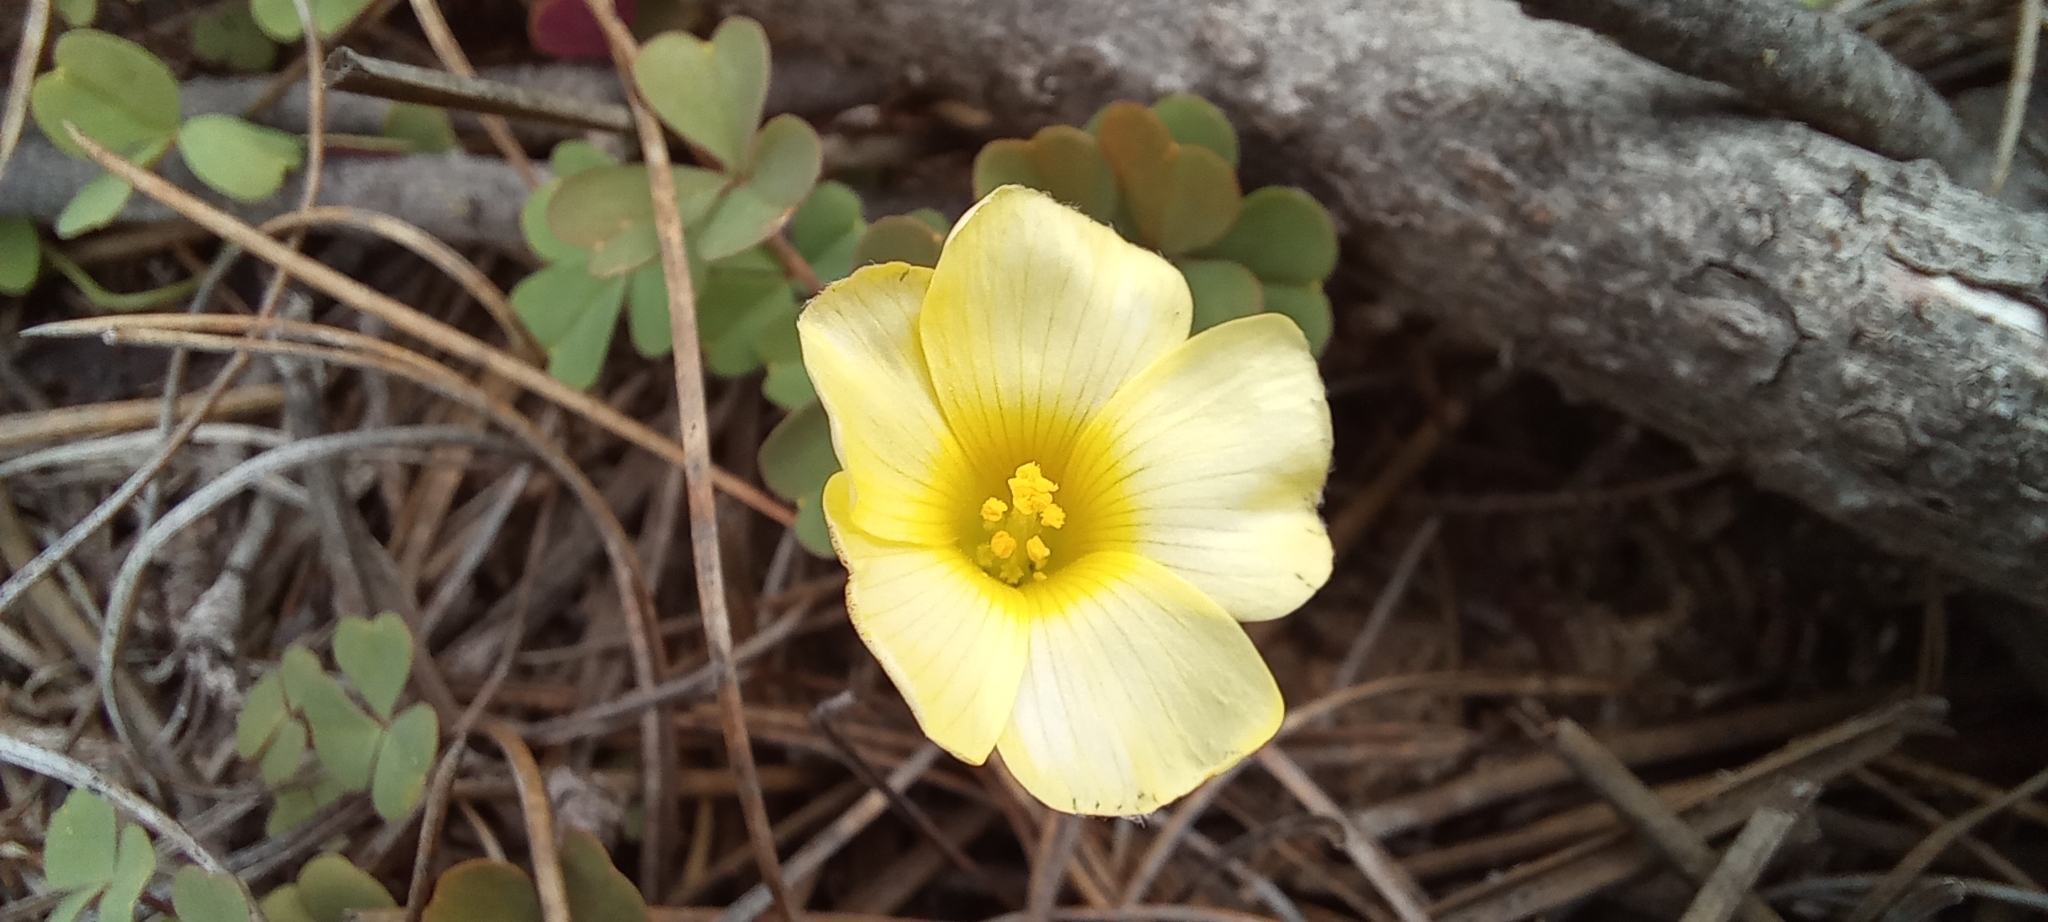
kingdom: Plantae
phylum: Tracheophyta
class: Magnoliopsida
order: Oxalidales
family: Oxalidaceae
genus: Oxalis
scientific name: Oxalis obtusa
